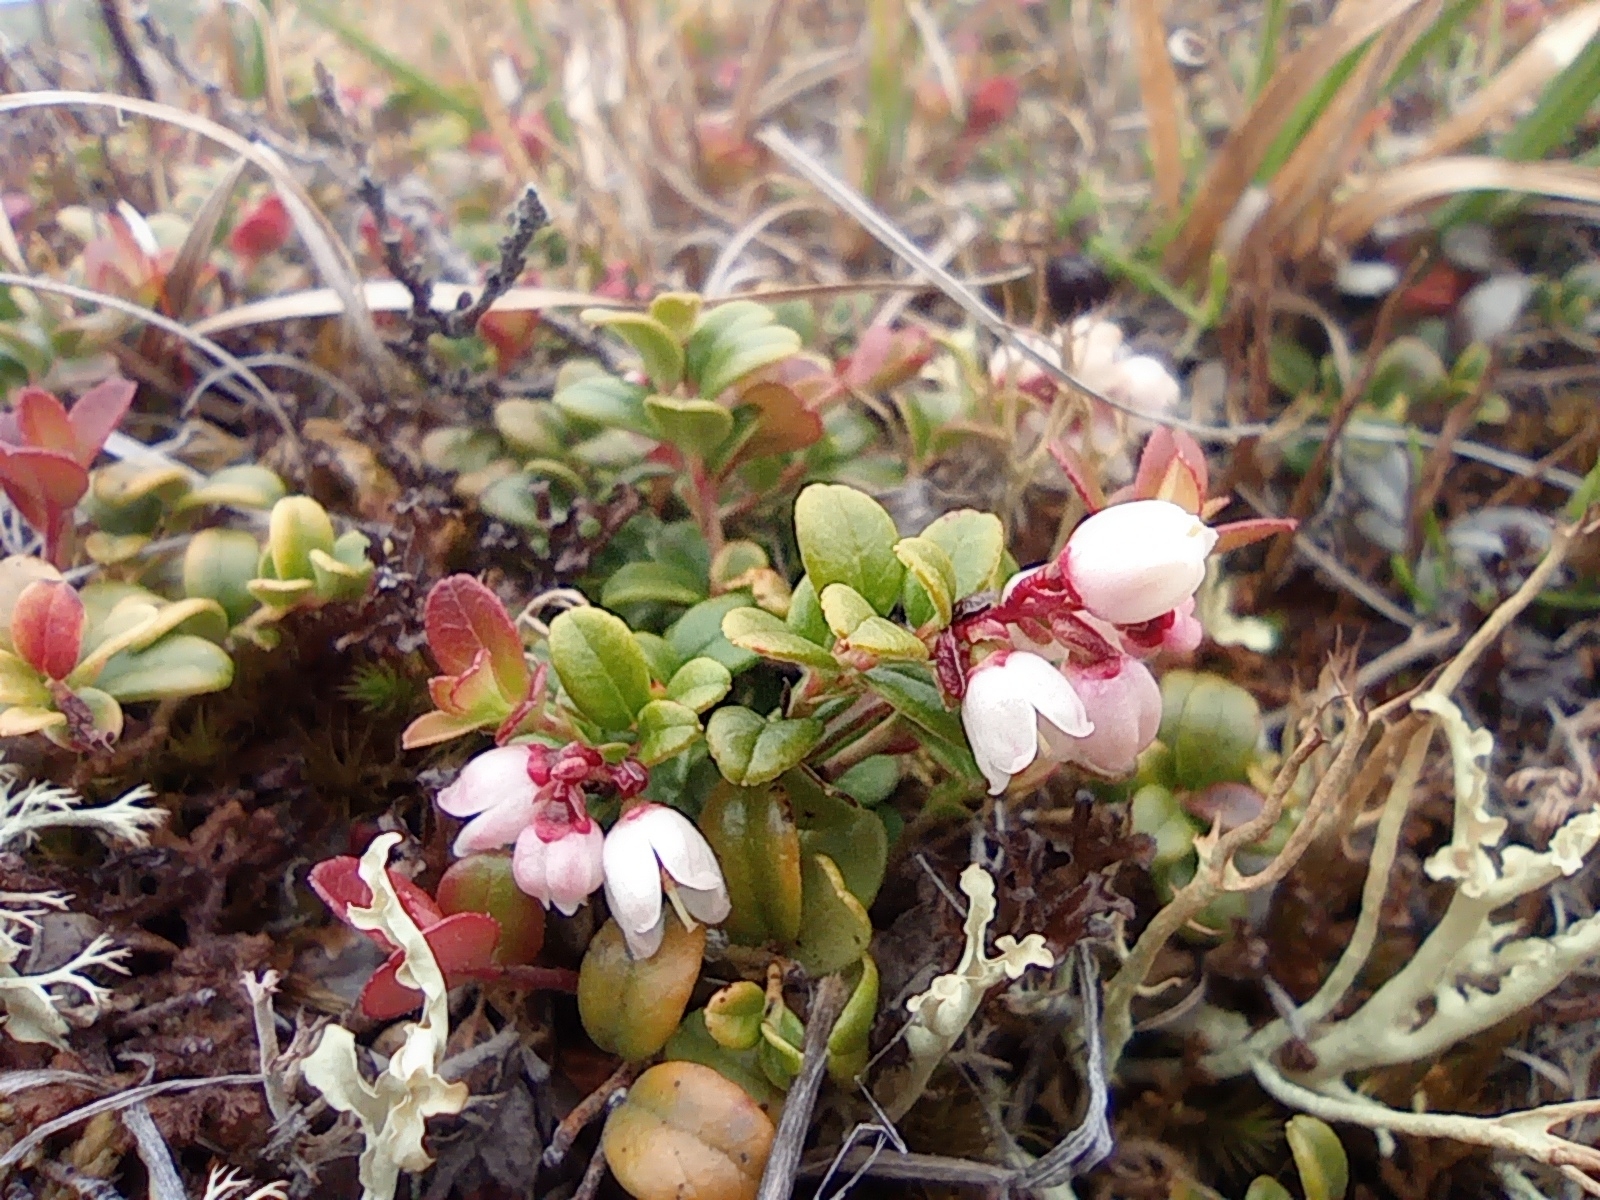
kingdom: Plantae
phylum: Tracheophyta
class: Magnoliopsida
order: Ericales
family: Ericaceae
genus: Vaccinium
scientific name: Vaccinium vitis-idaea
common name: Cowberry
